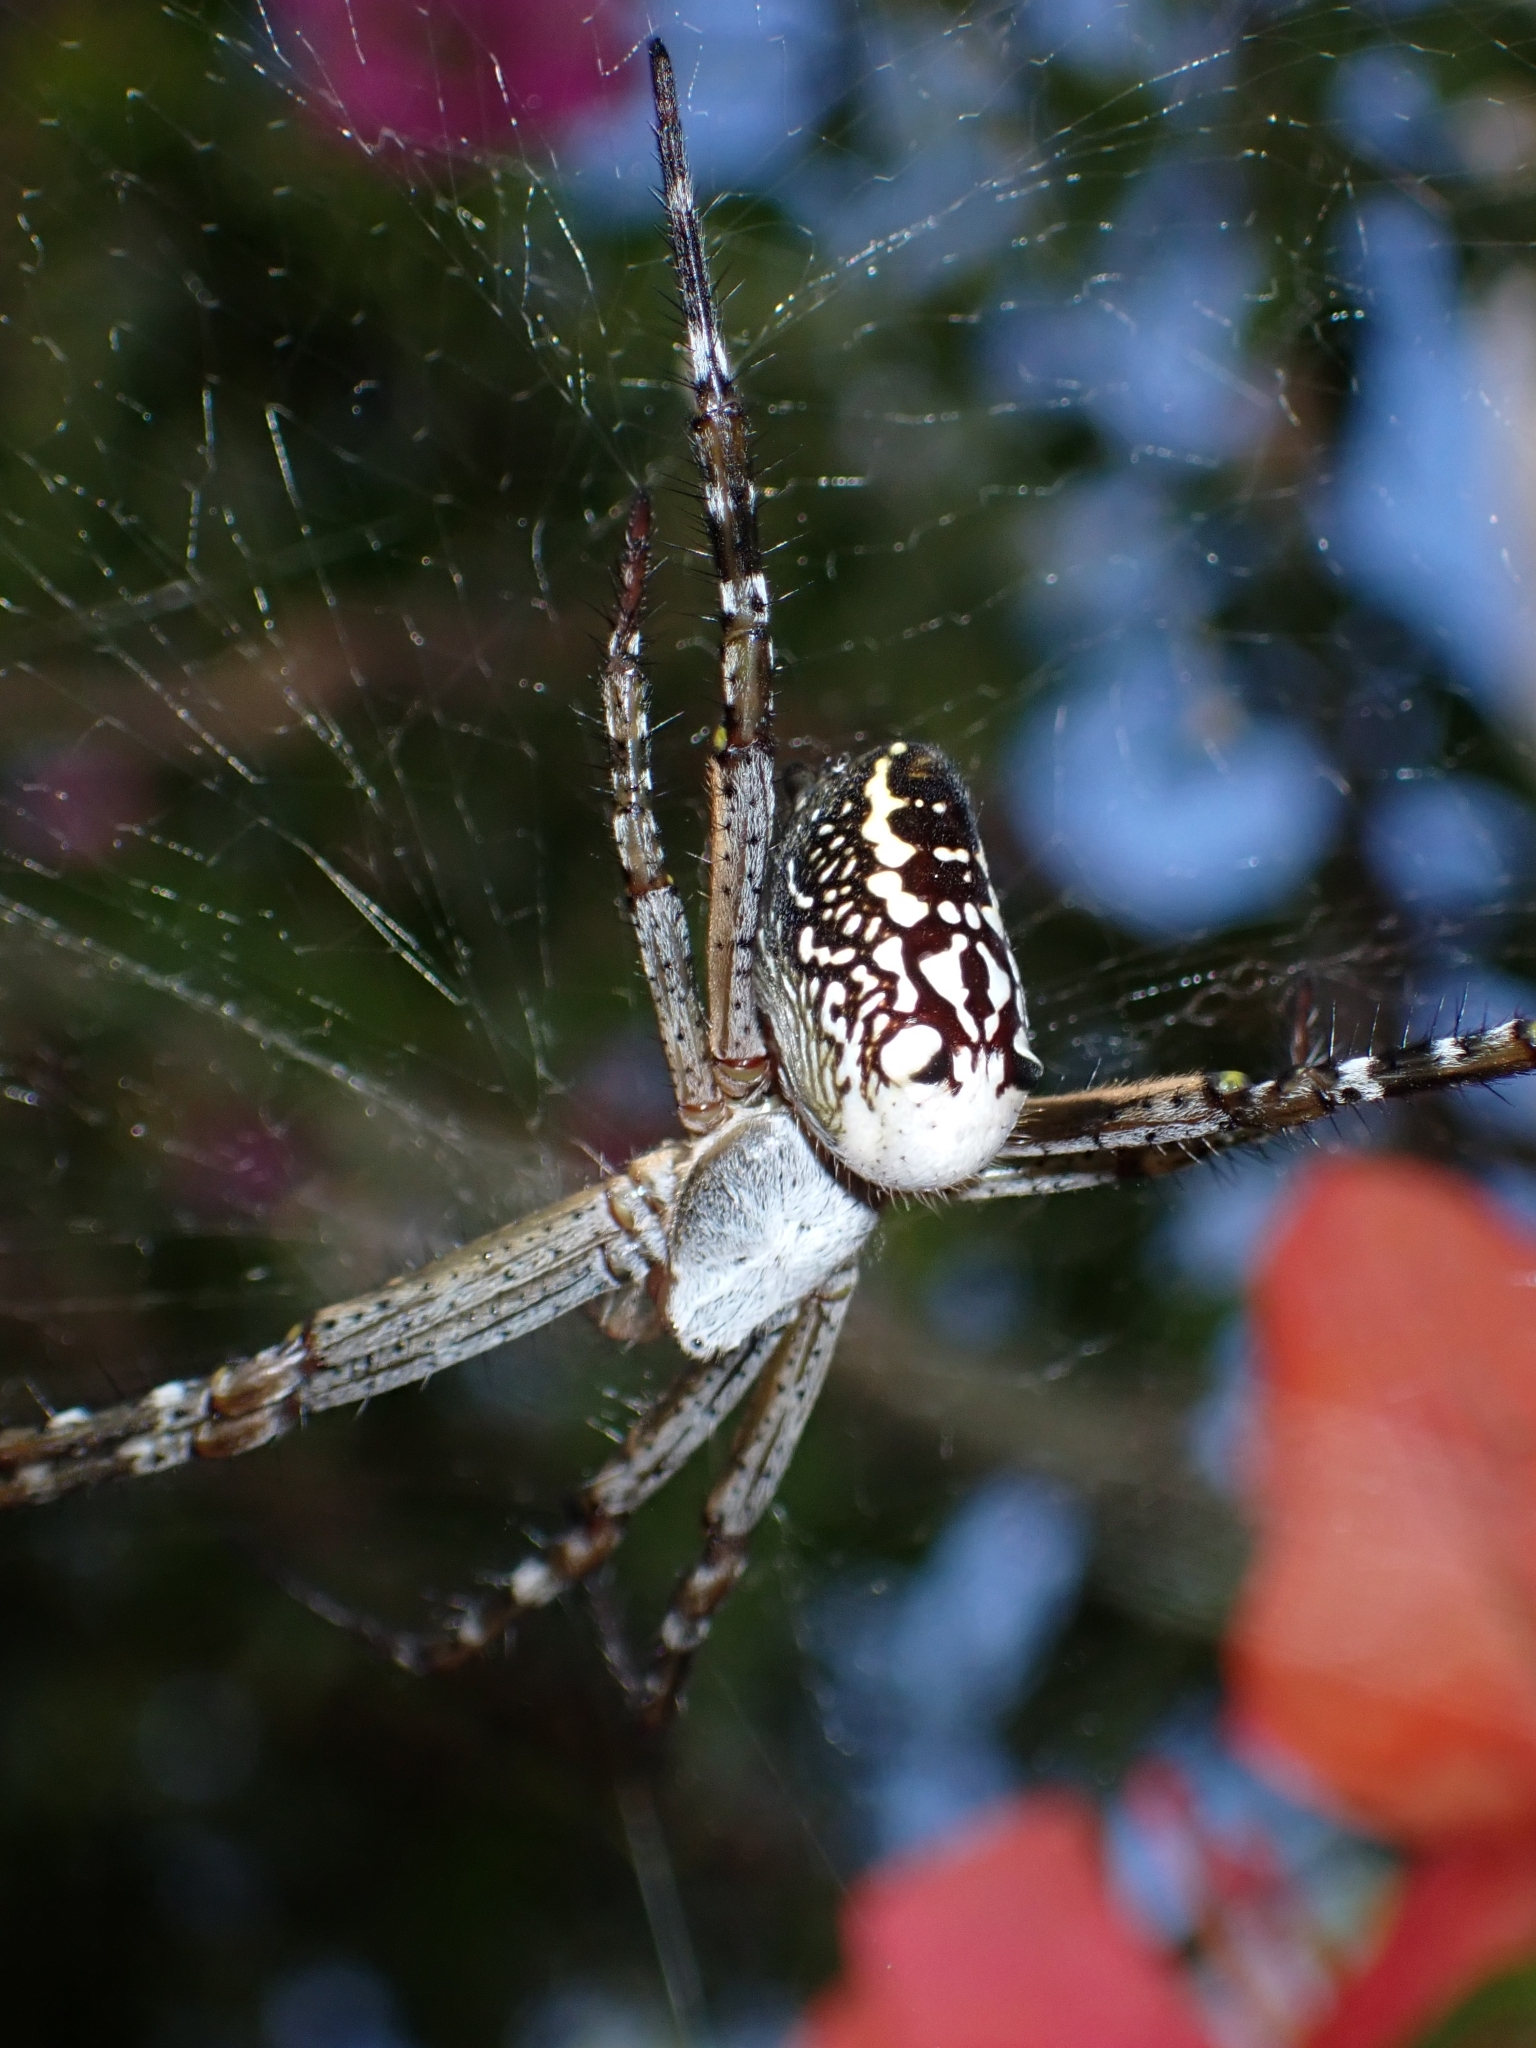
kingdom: Chromista
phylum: Ochrophyta
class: Dictyochophyceae
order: Pedinellales
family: Cyrtophoraceae
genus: Cyrtophora
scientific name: Cyrtophora moluccensis
